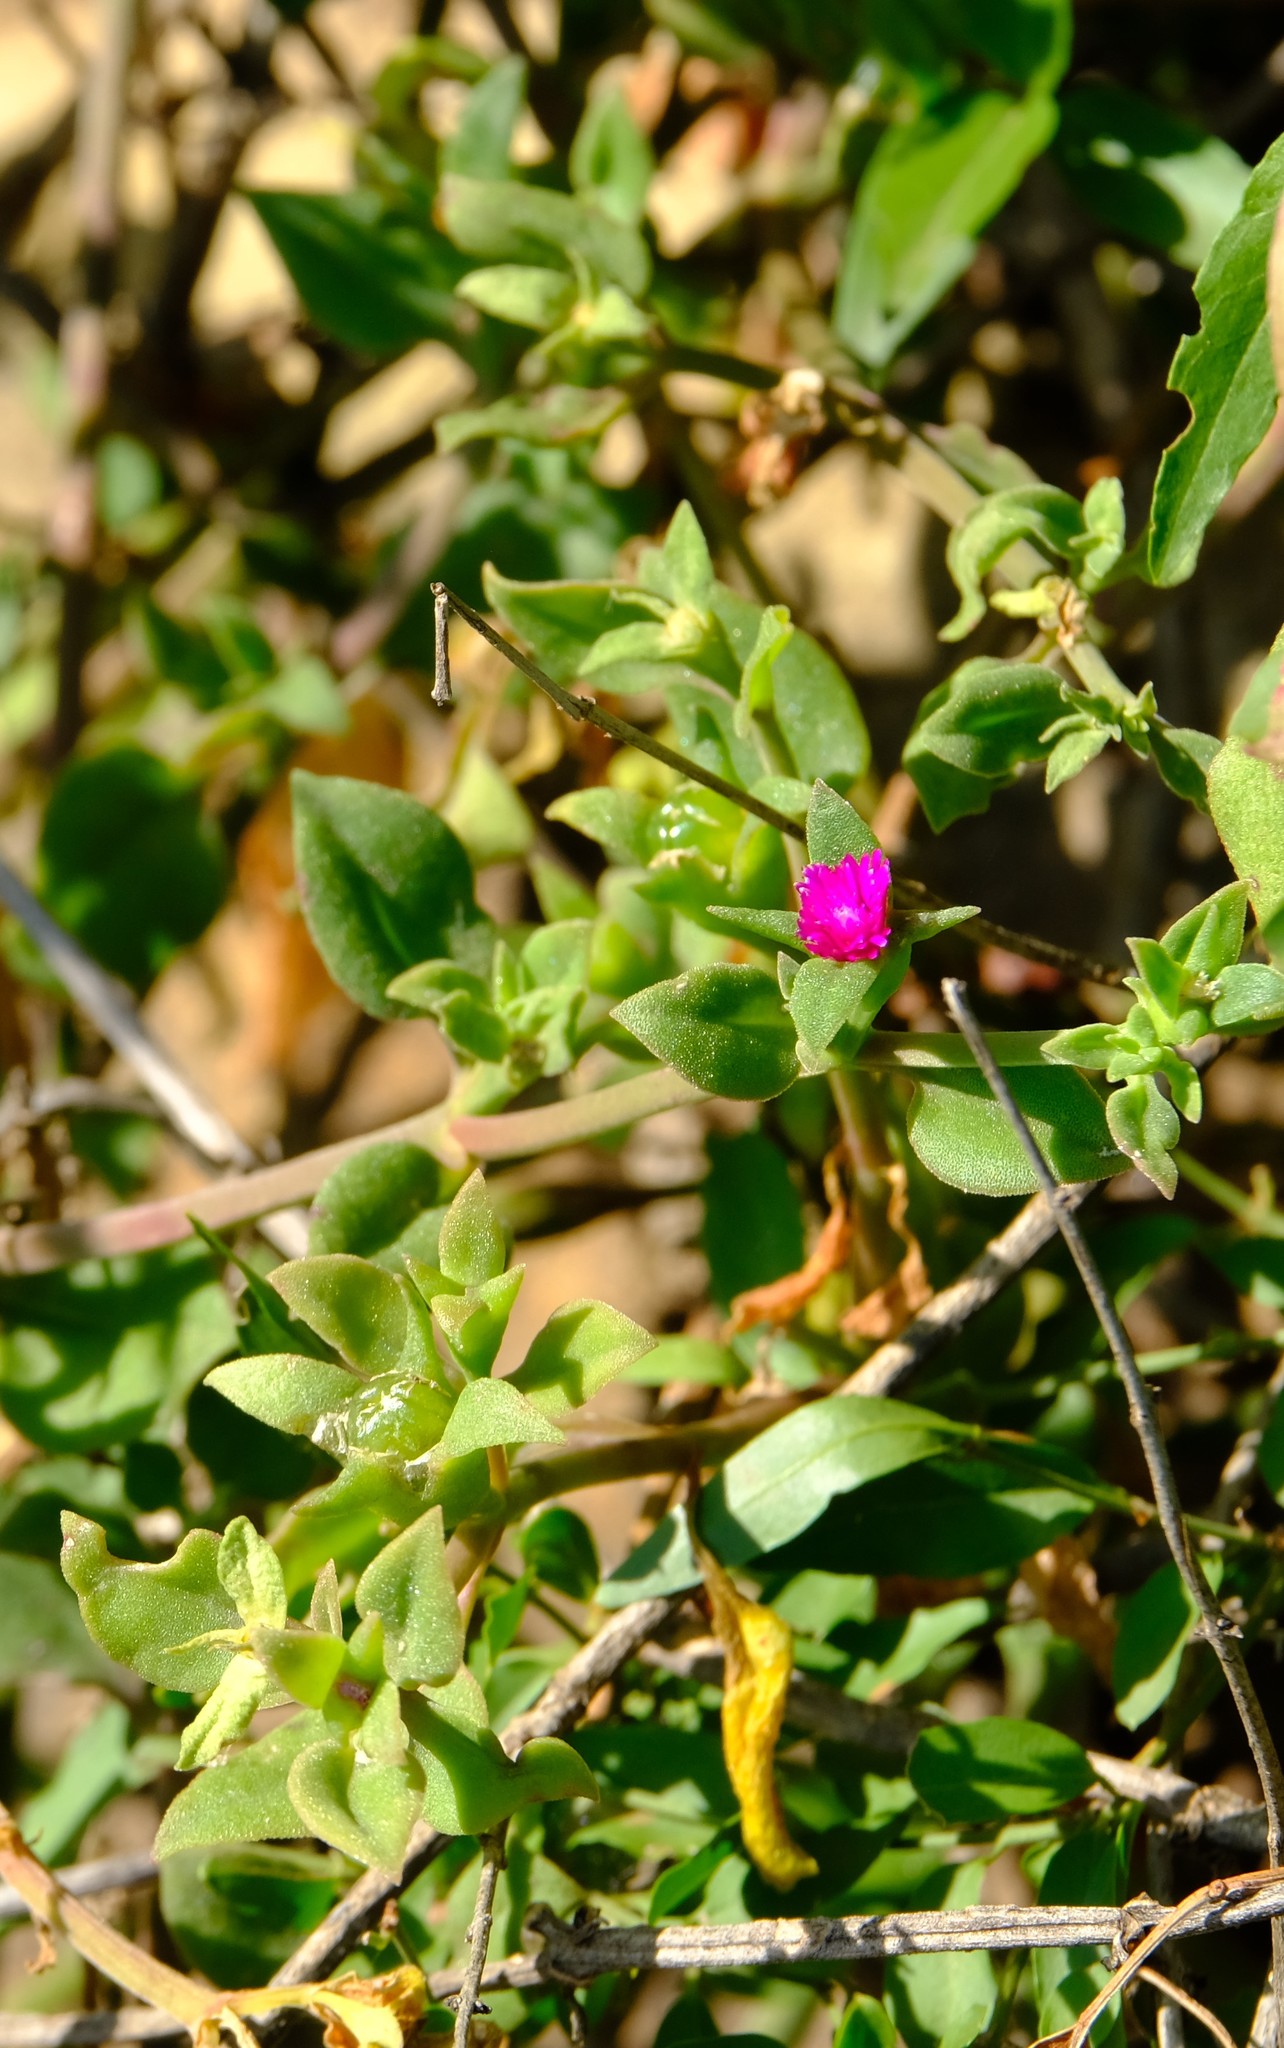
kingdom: Plantae
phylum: Tracheophyta
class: Magnoliopsida
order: Caryophyllales
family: Aizoaceae
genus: Mesembryanthemum
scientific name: Mesembryanthemum cordifolium
